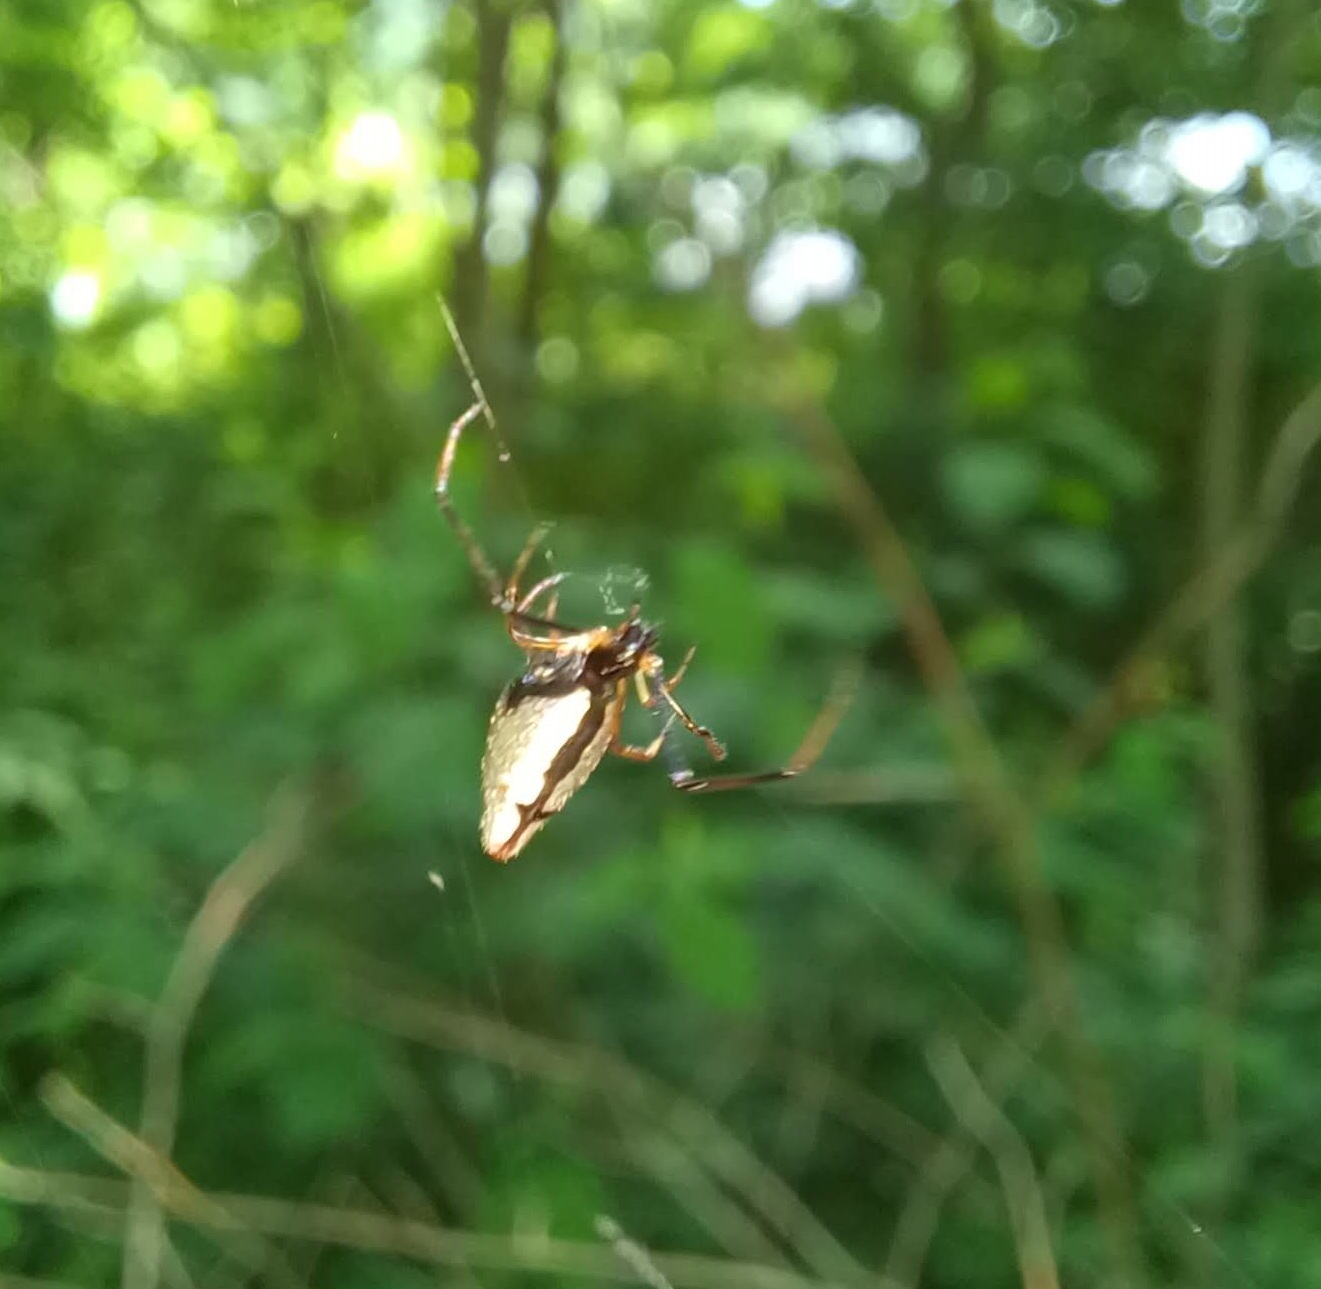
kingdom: Animalia
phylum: Arthropoda
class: Arachnida
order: Araneae
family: Theridiidae
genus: Argyrodes
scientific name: Argyrodes elevatus
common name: Cobweb spiders
